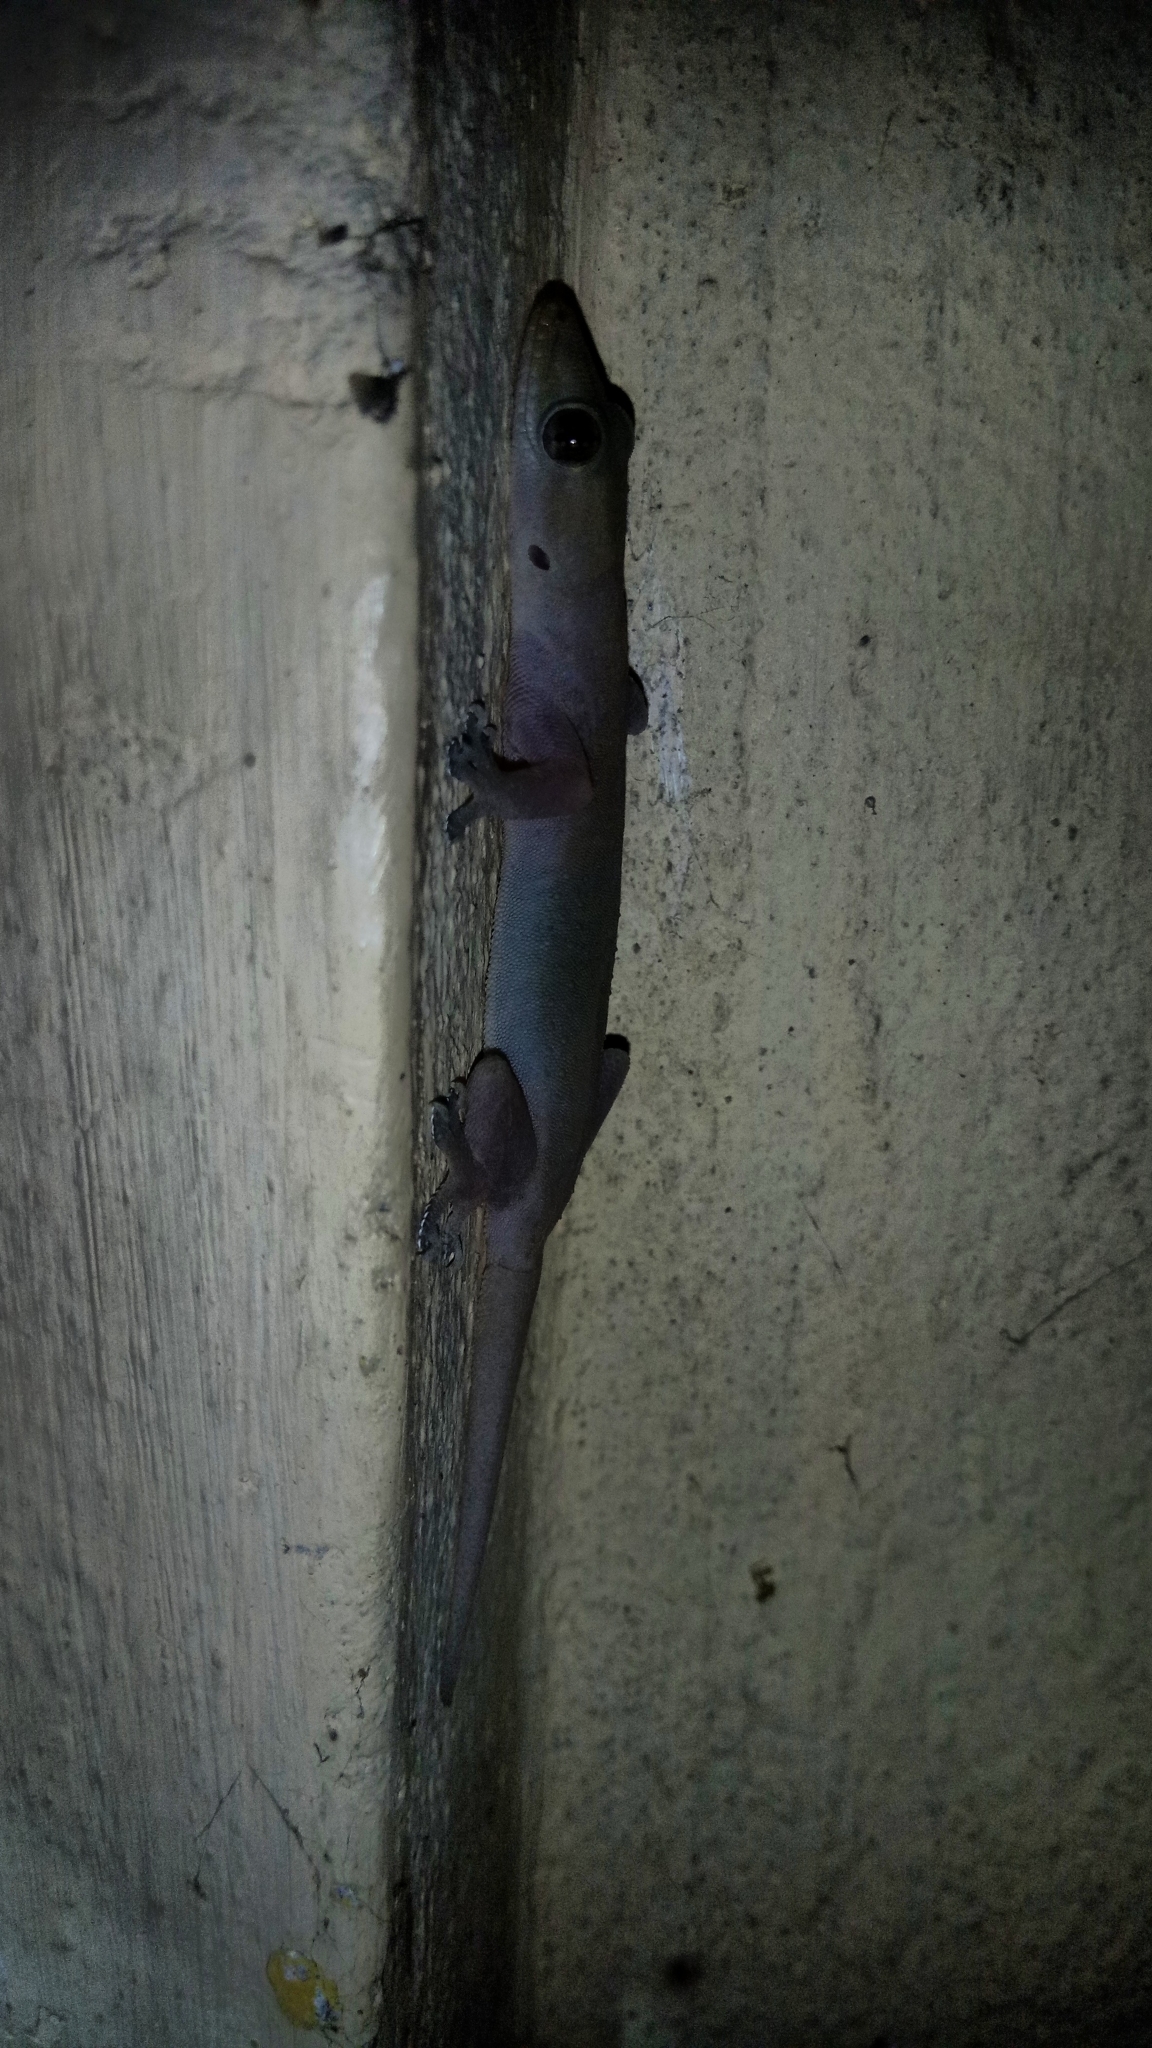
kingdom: Animalia
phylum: Chordata
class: Squamata
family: Gekkonidae
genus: Hemidactylus
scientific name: Hemidactylus frenatus
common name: Common house gecko
